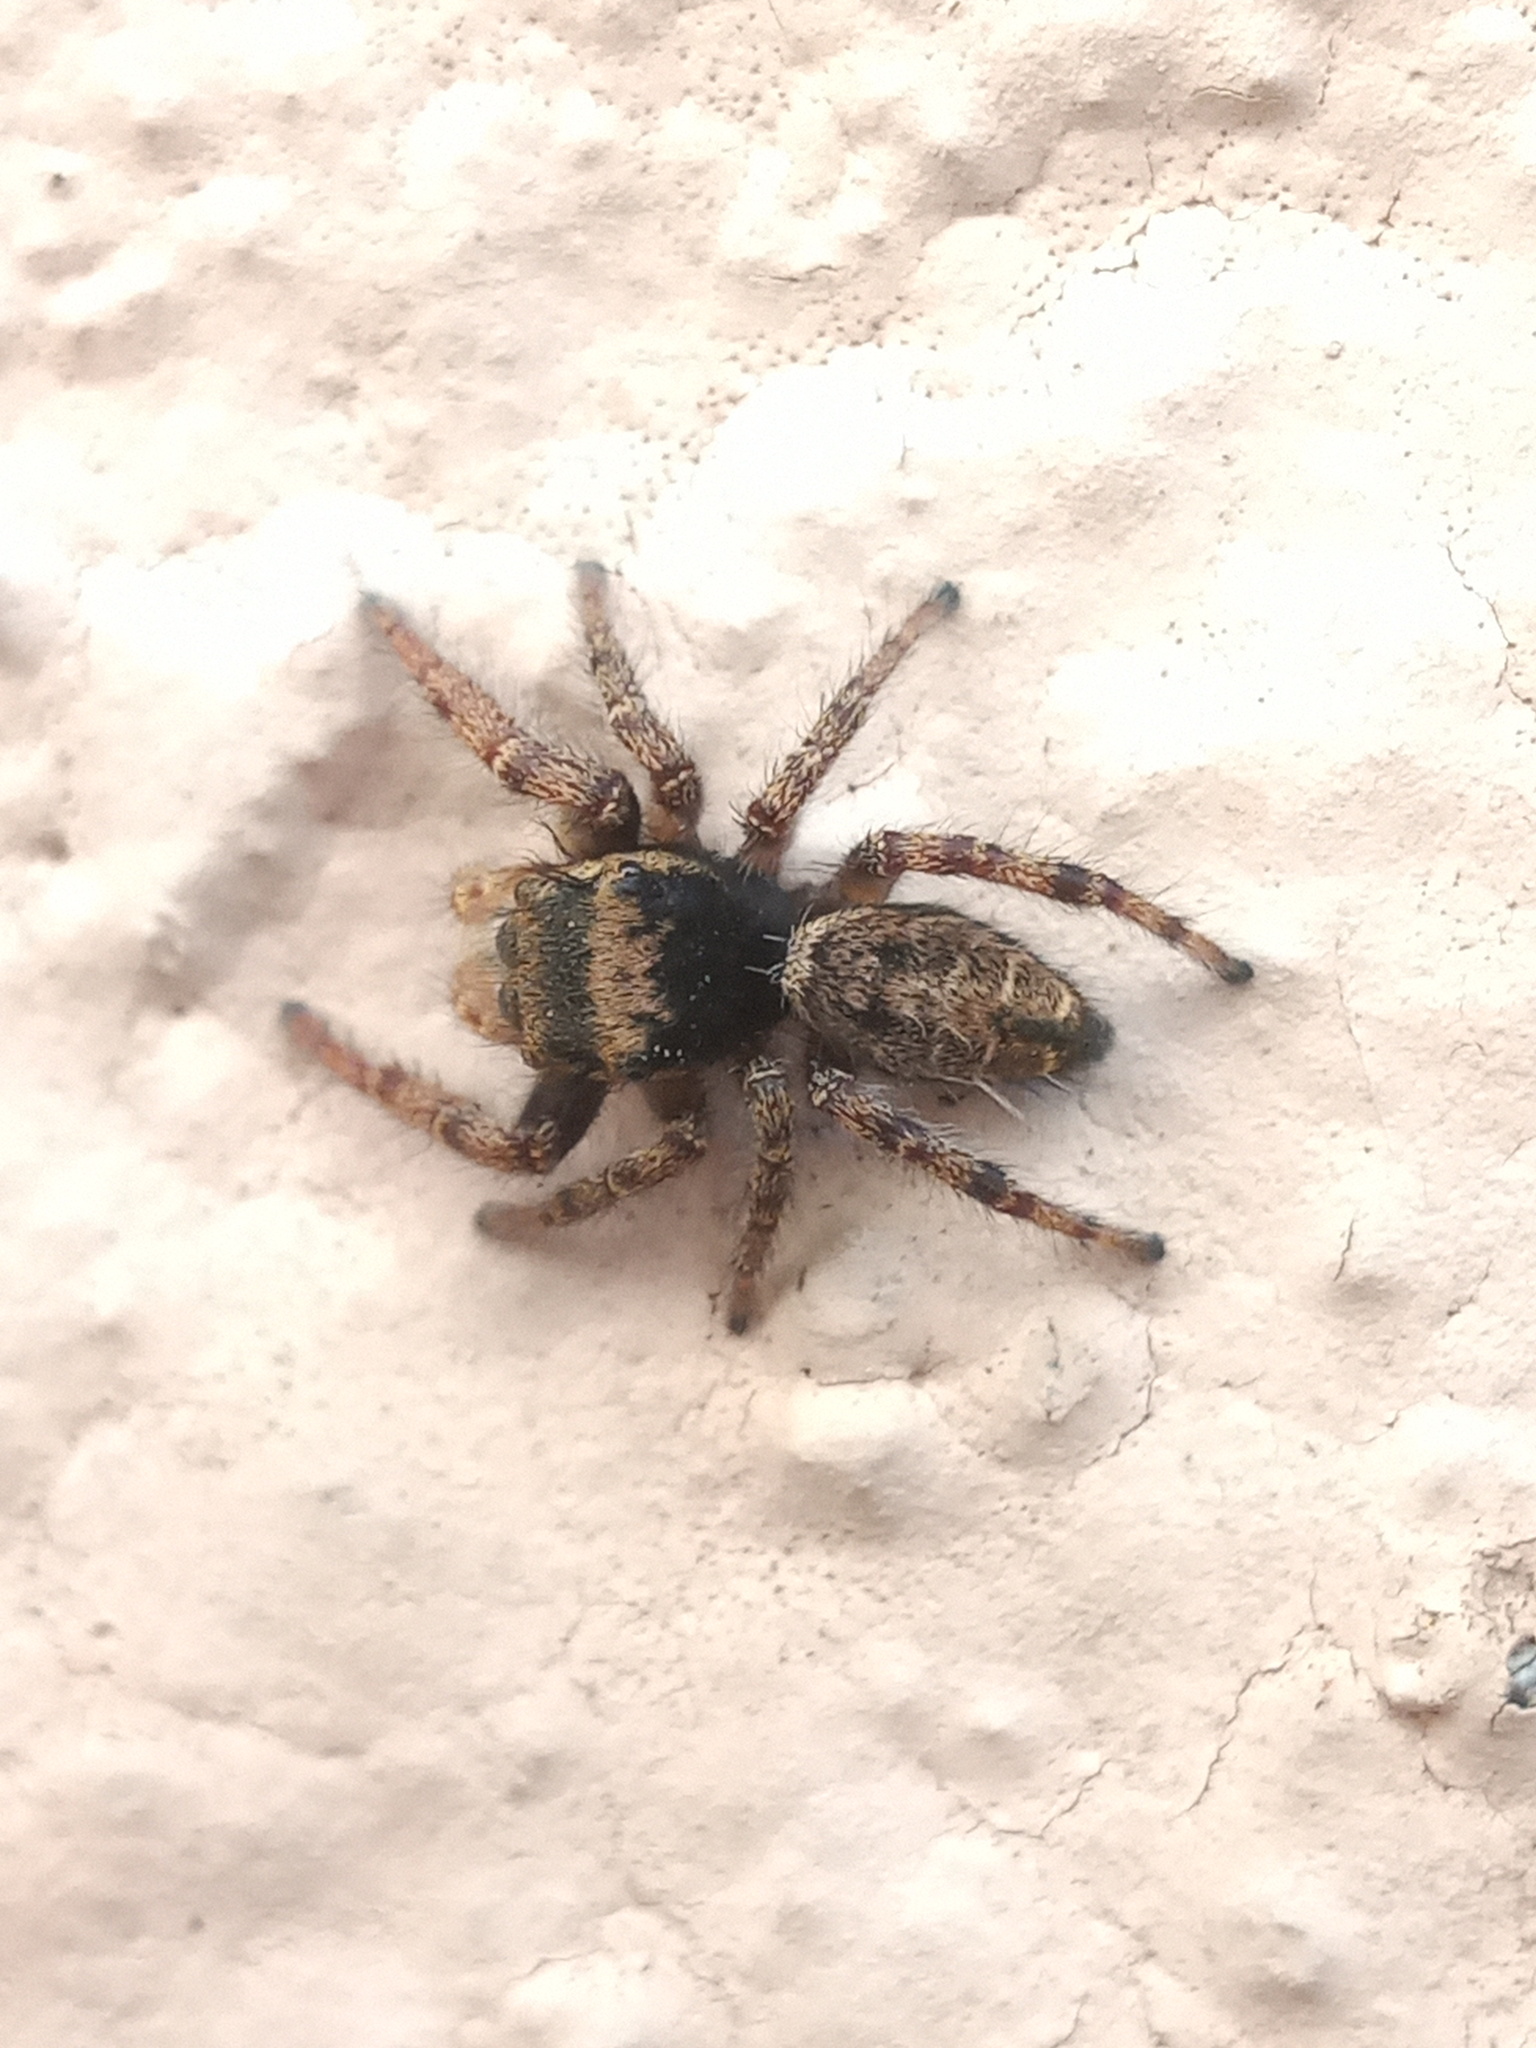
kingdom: Animalia
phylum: Arthropoda
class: Arachnida
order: Araneae
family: Salticidae
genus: Phidippus
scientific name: Phidippus arizonensis
